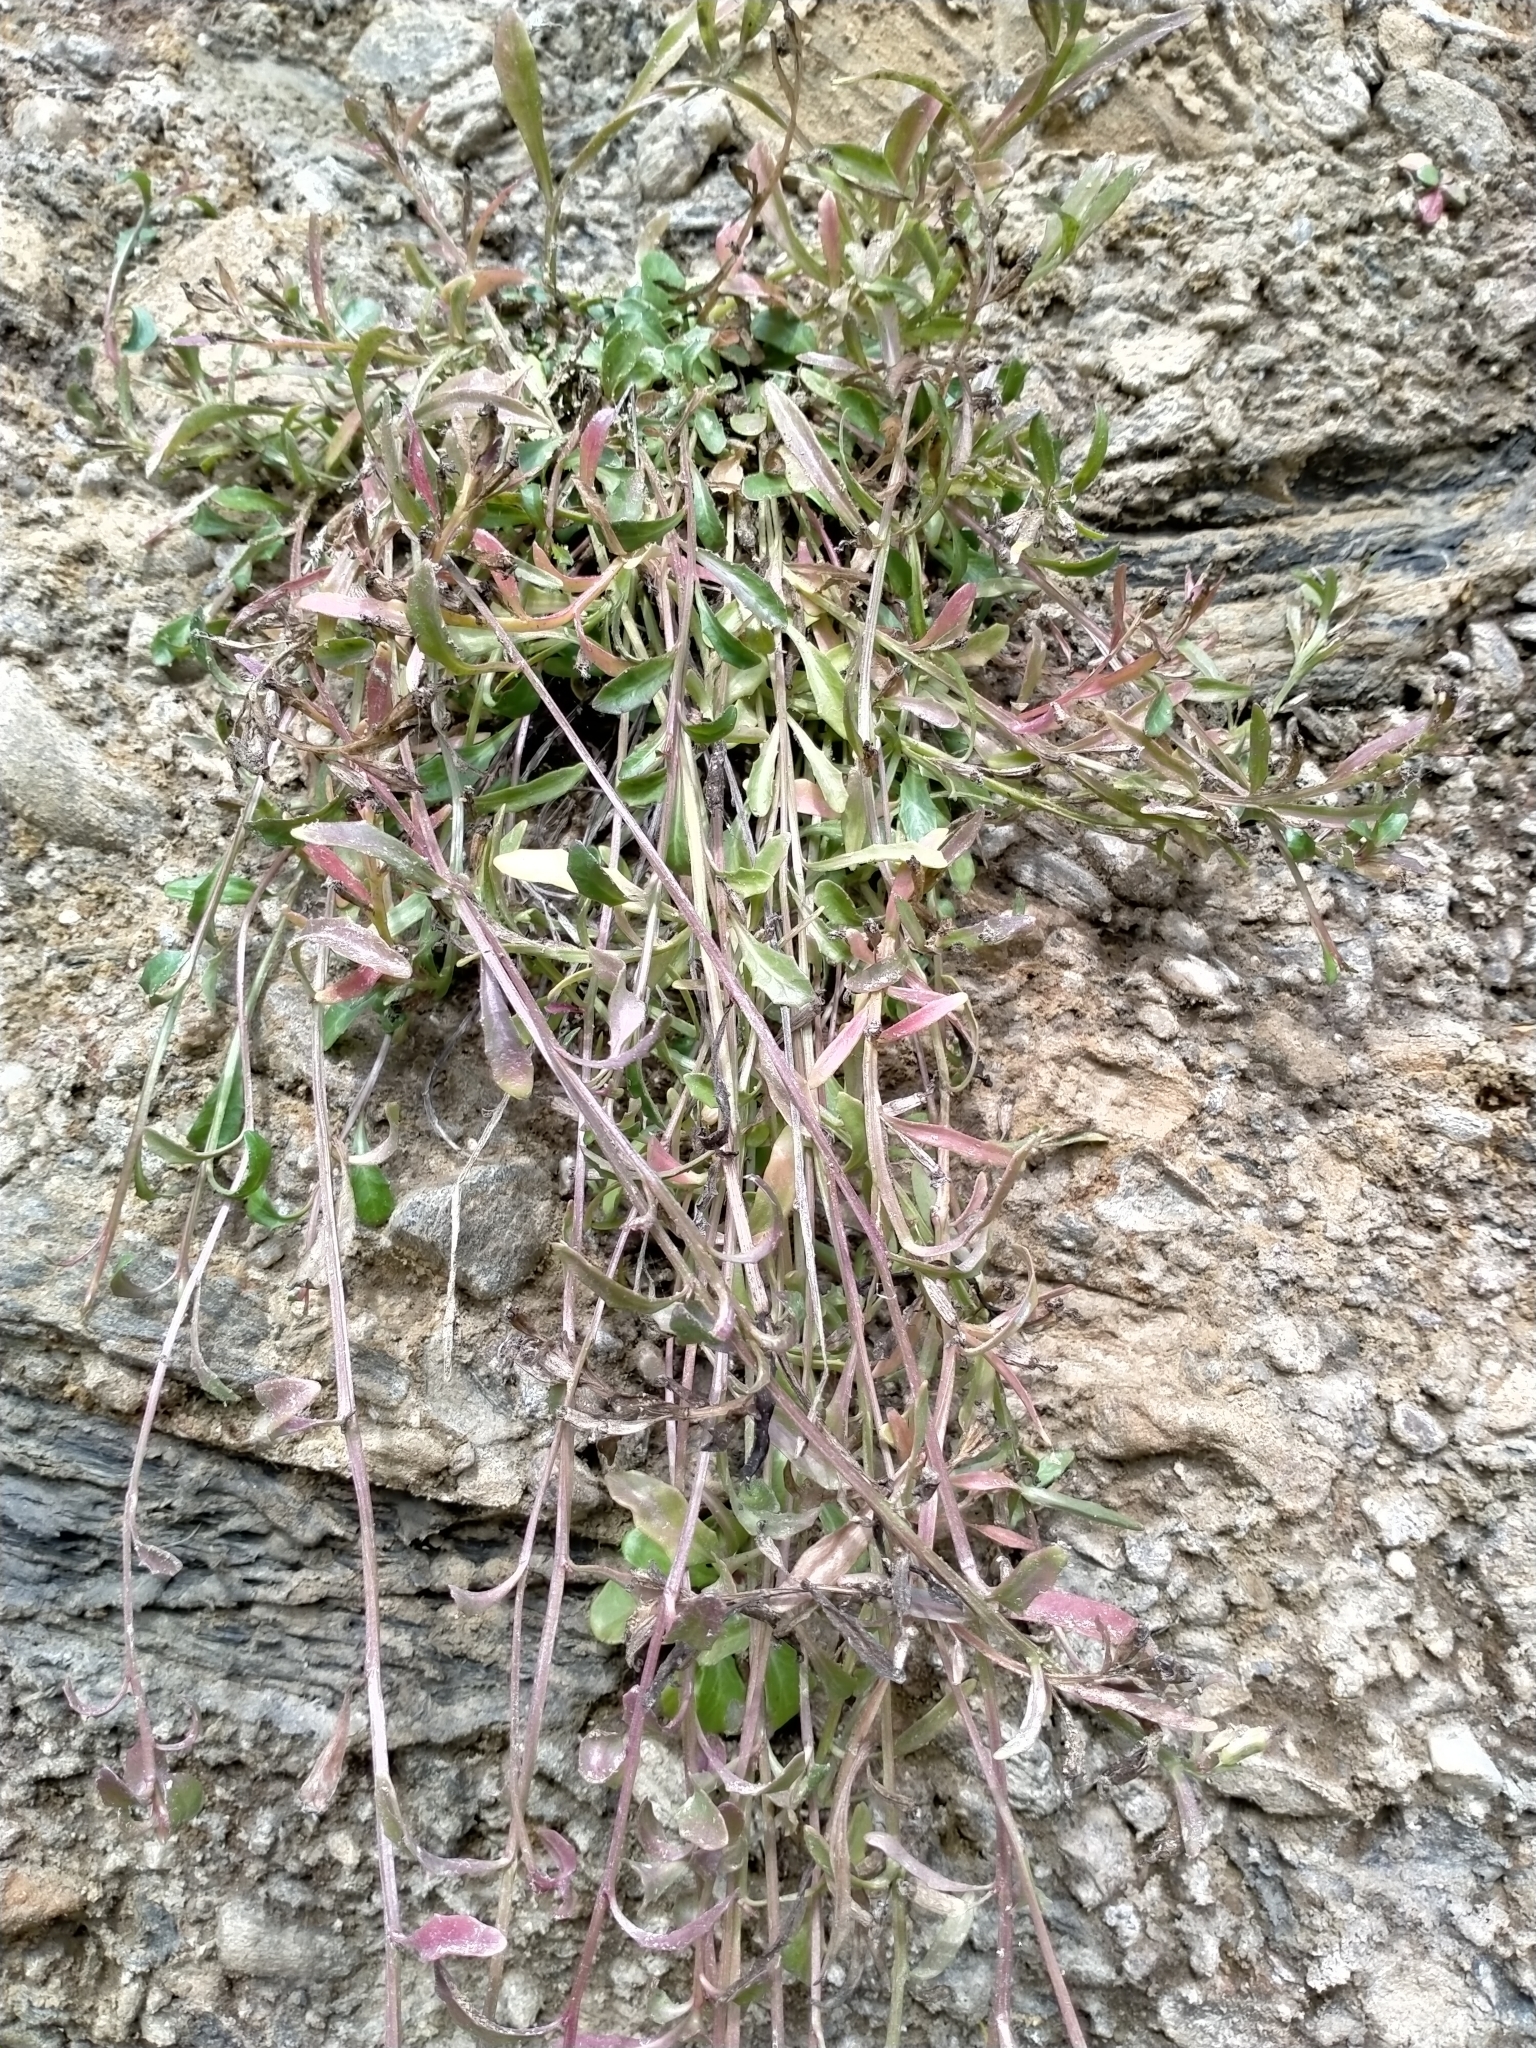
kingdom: Plantae
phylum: Tracheophyta
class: Magnoliopsida
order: Asterales
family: Campanulaceae
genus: Lobelia
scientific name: Lobelia anceps
